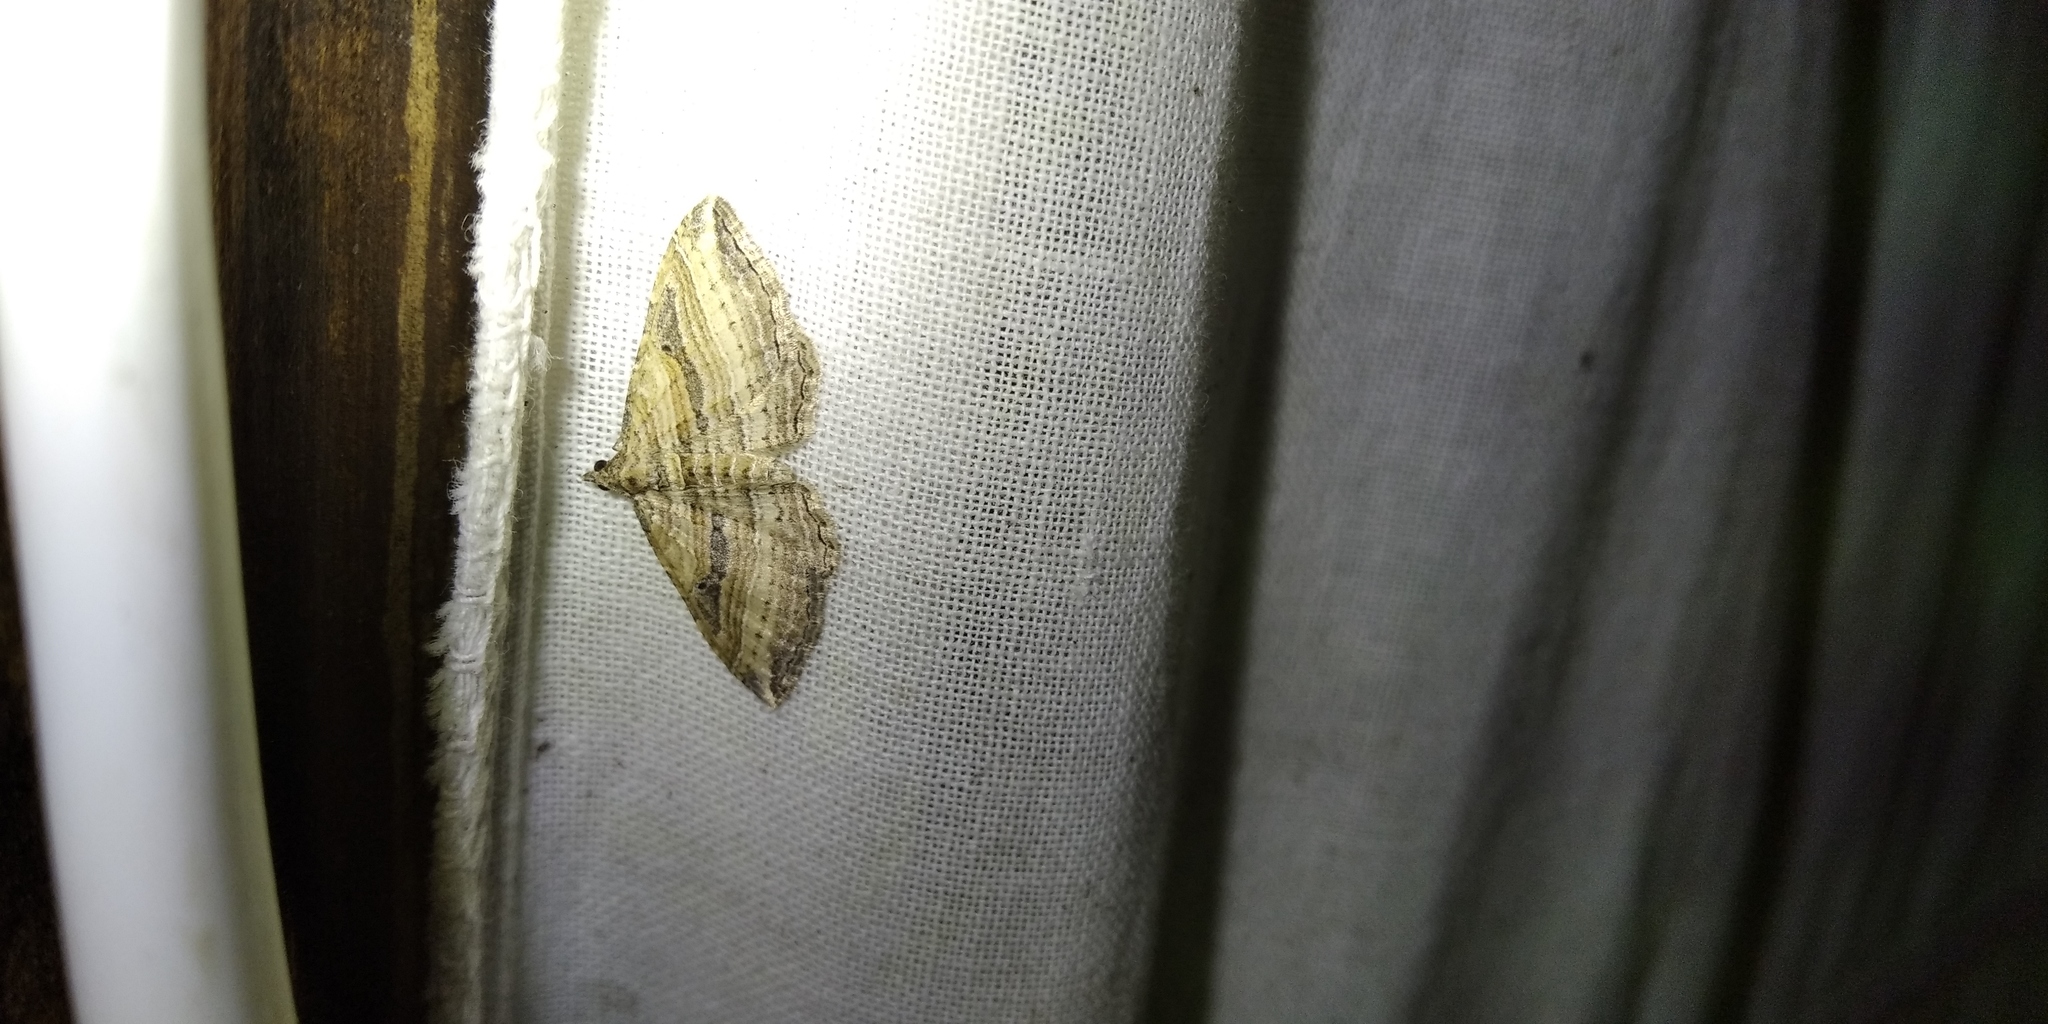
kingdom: Animalia
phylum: Arthropoda
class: Insecta
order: Lepidoptera
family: Geometridae
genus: Costaconvexa
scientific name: Costaconvexa polygrammata
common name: Many-lined
